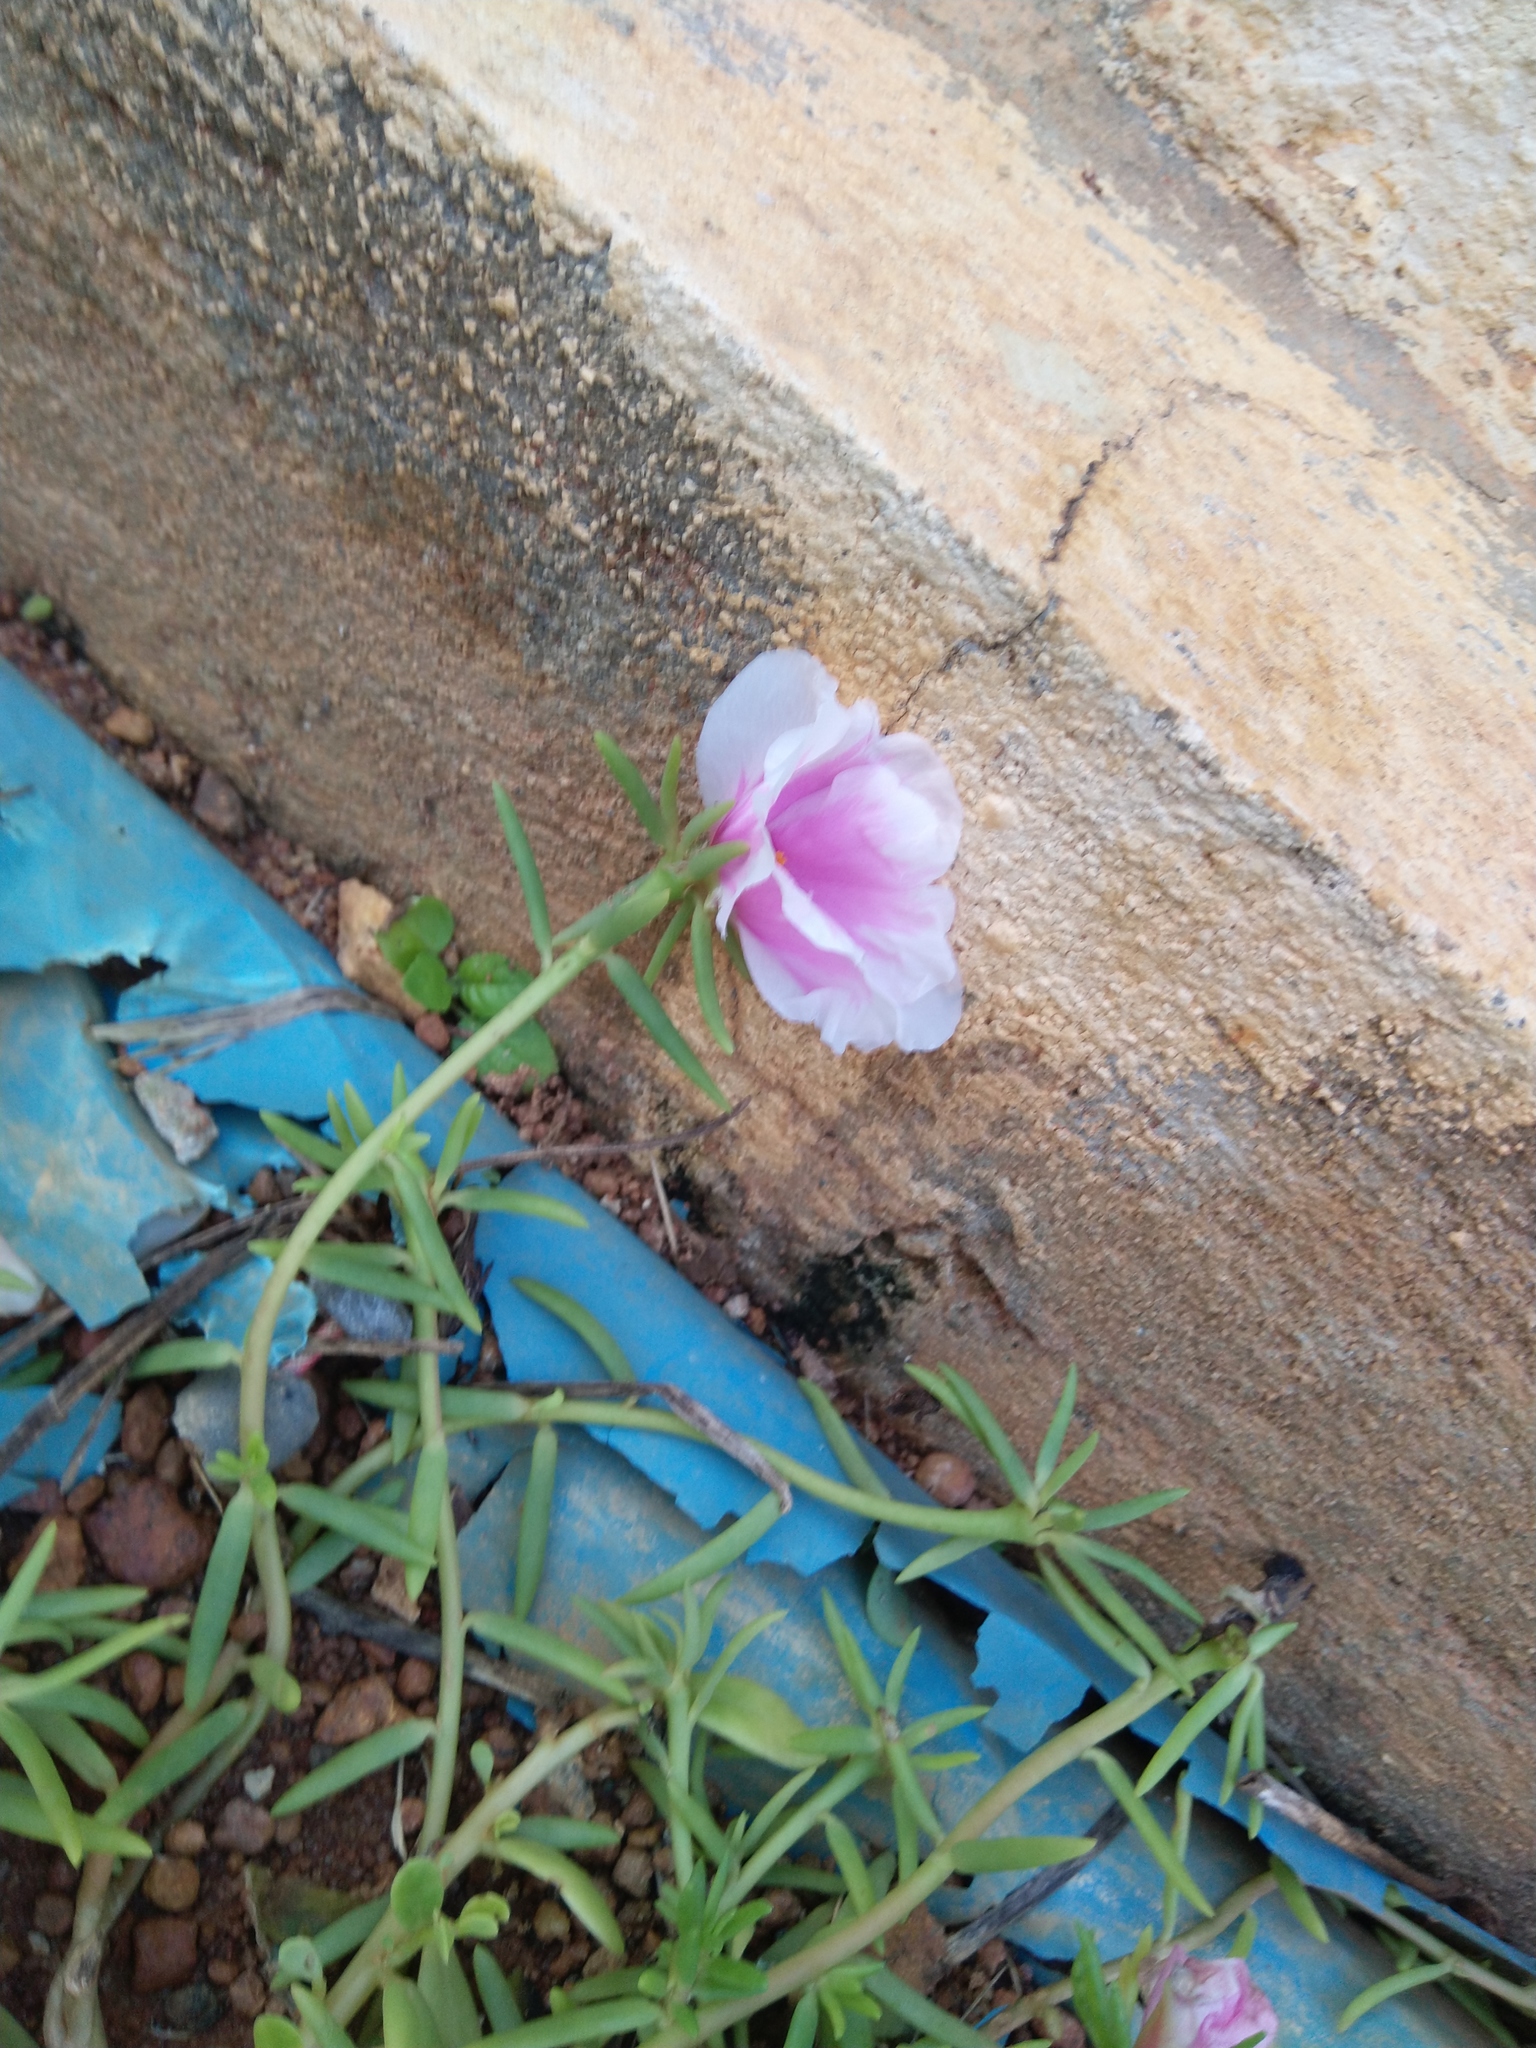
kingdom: Plantae
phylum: Tracheophyta
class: Magnoliopsida
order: Caryophyllales
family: Portulacaceae
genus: Portulaca
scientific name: Portulaca grandiflora
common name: Moss-rose
